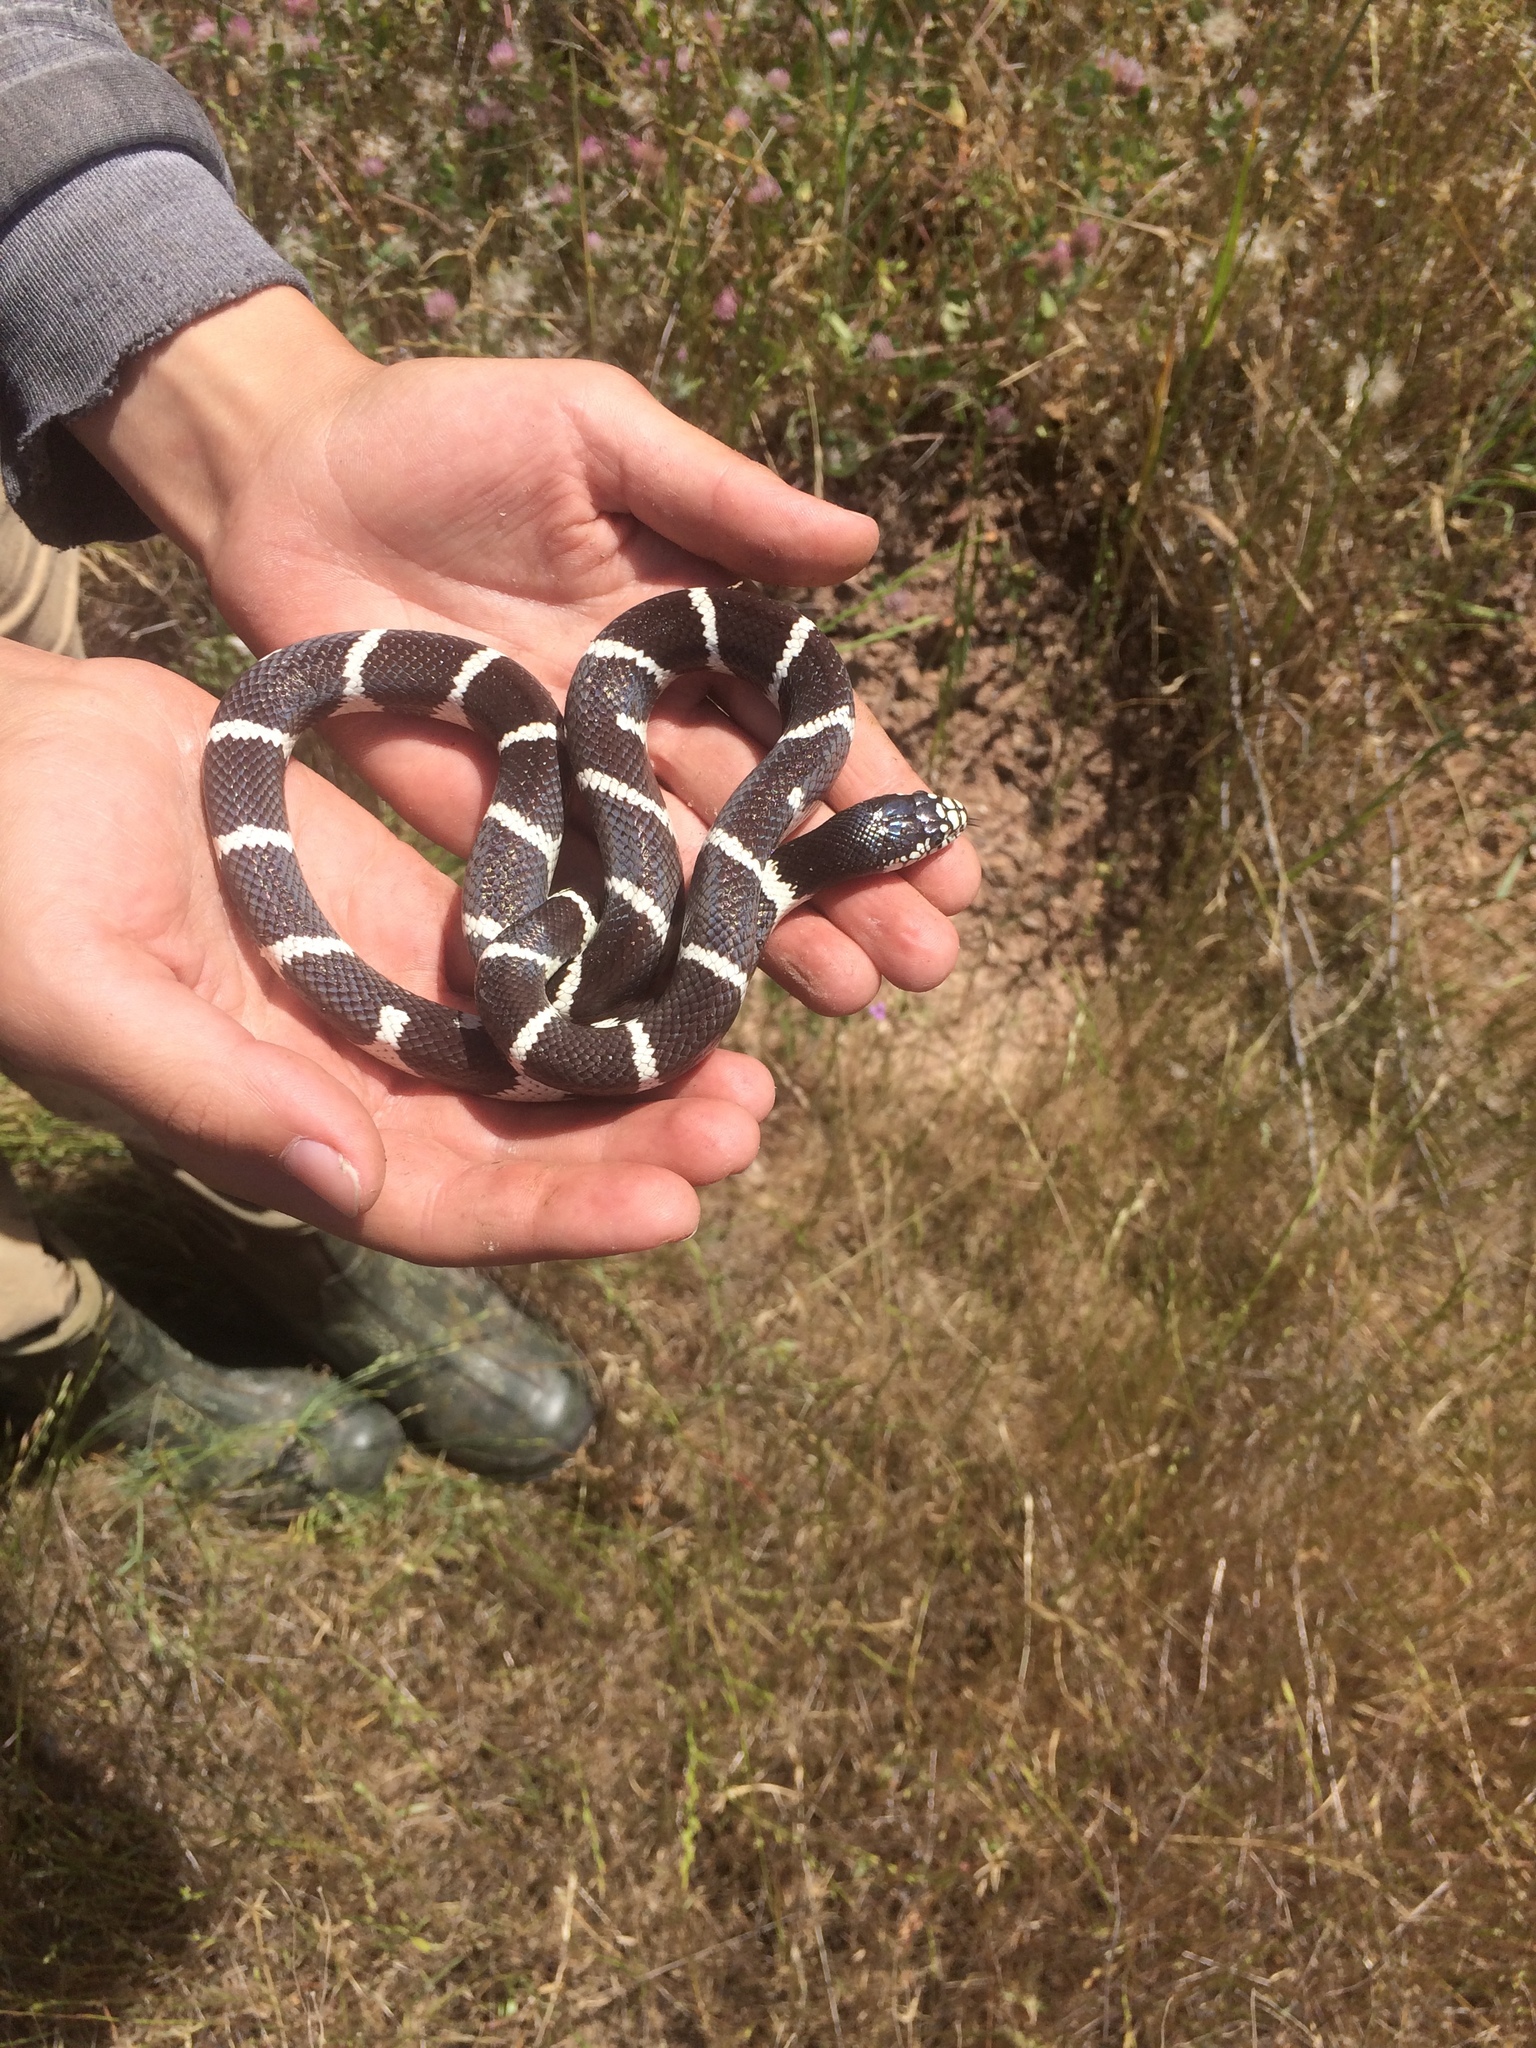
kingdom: Animalia
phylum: Chordata
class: Squamata
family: Colubridae
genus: Lampropeltis
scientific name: Lampropeltis californiae
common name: California kingsnake
